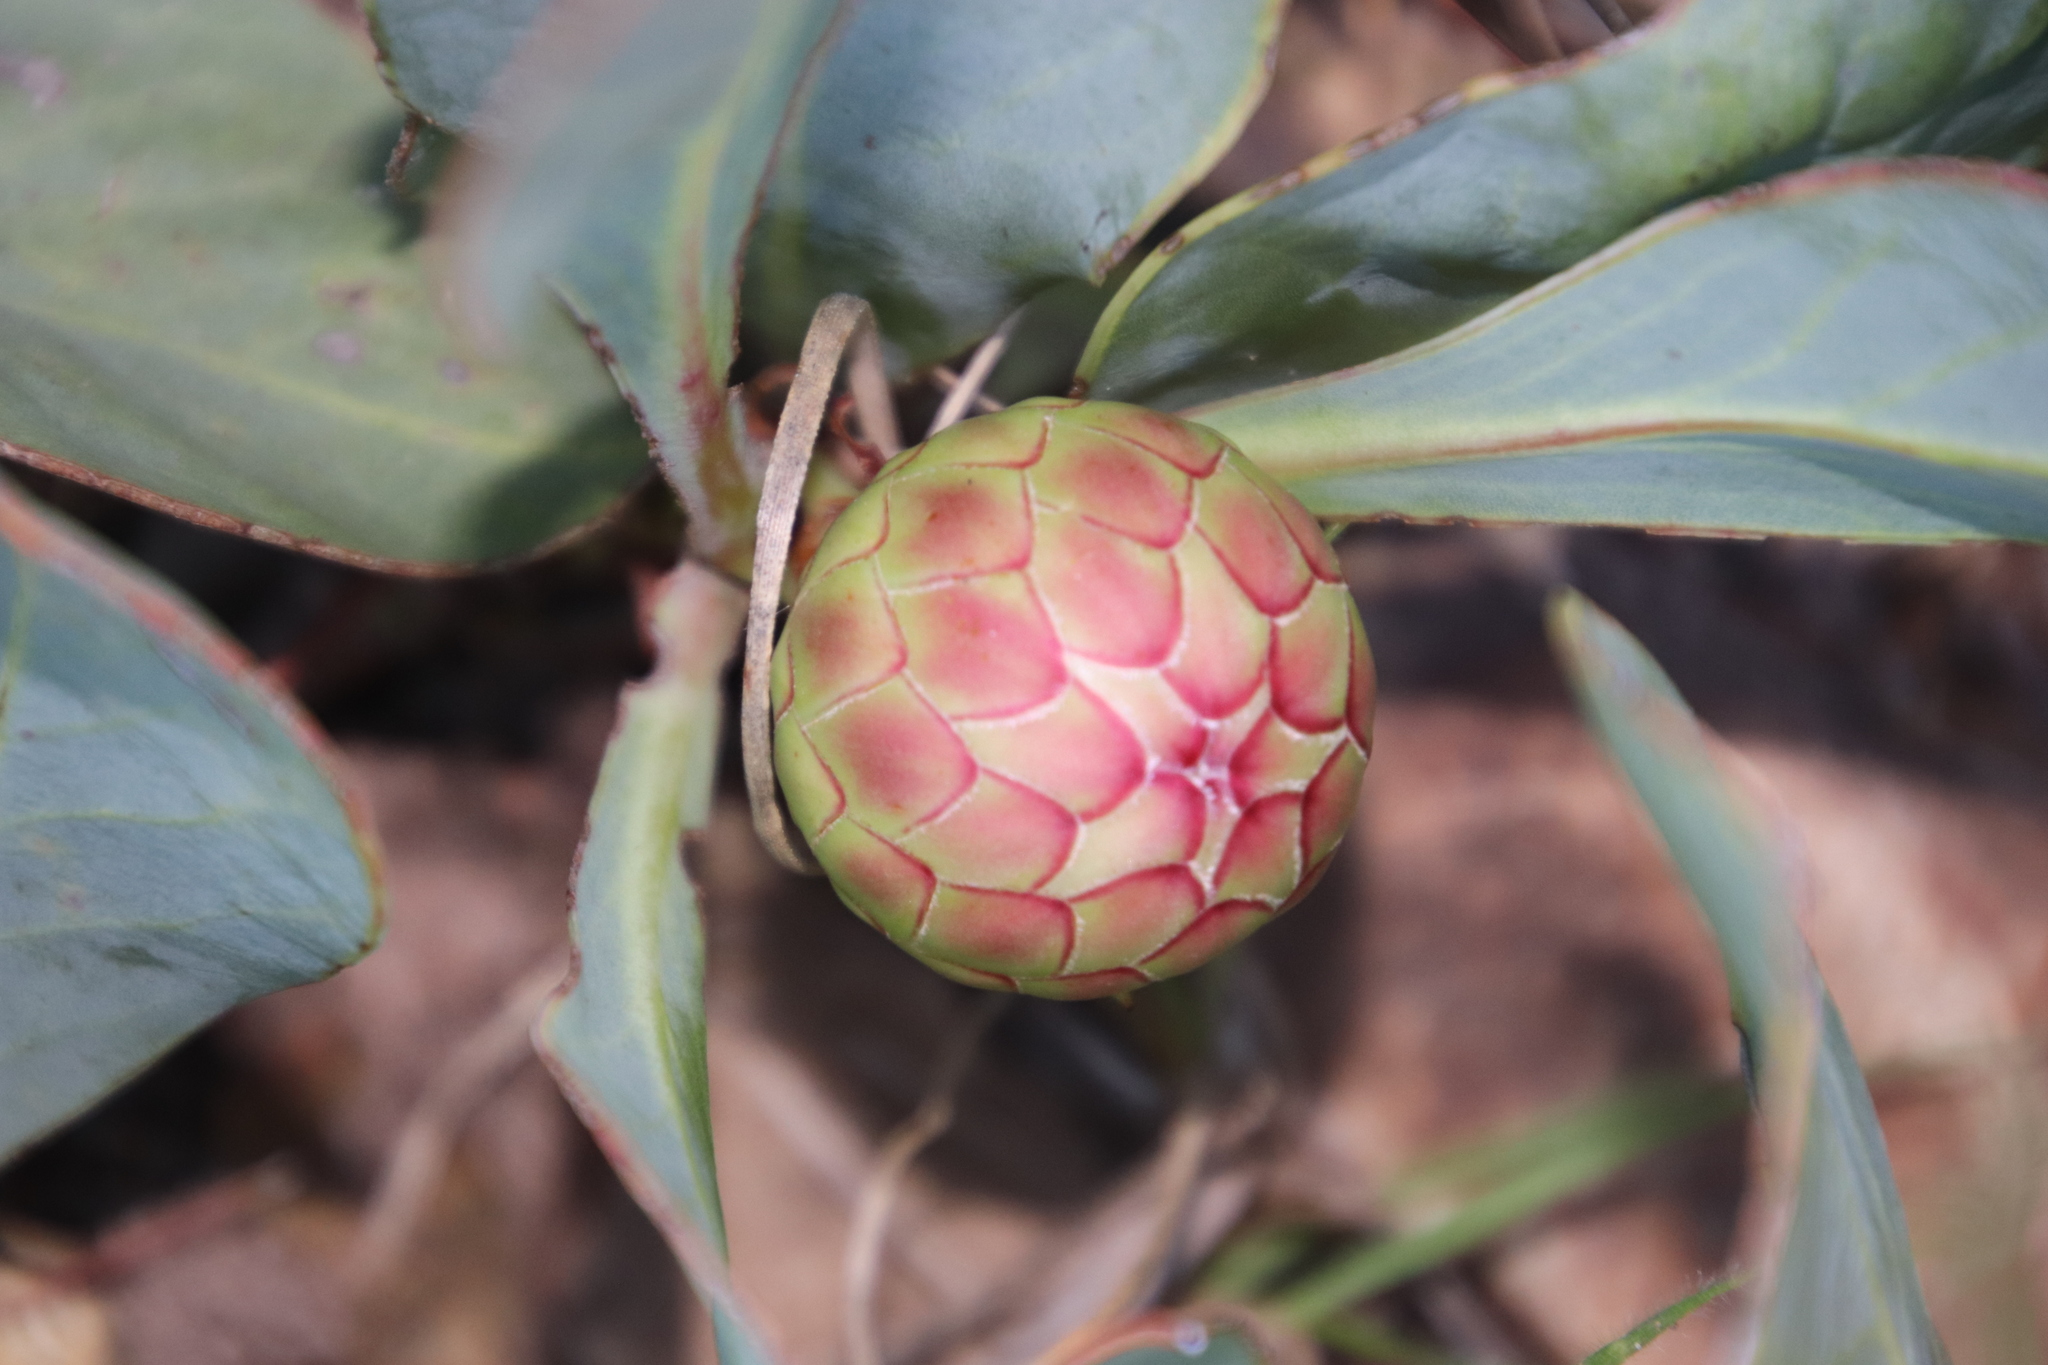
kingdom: Plantae
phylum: Tracheophyta
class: Magnoliopsida
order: Proteales
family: Proteaceae
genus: Protea
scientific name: Protea acaulos
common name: Common ground sugarbush
